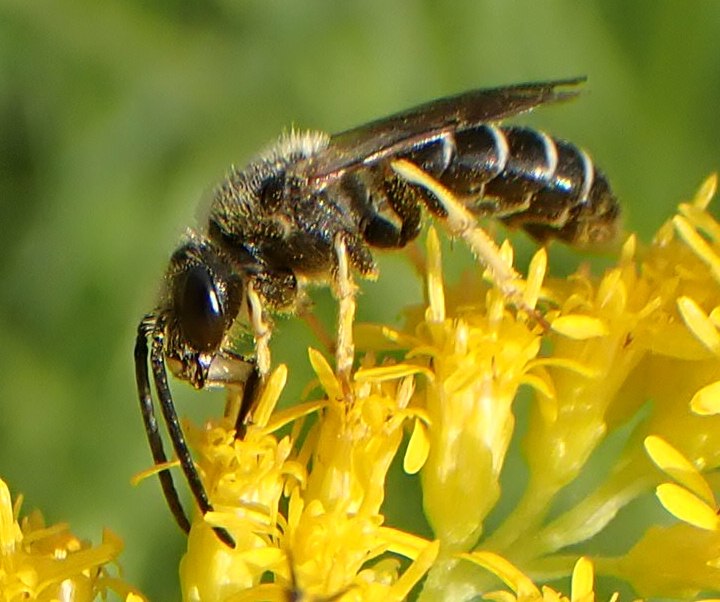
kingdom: Animalia
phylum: Arthropoda
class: Insecta
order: Hymenoptera
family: Halictidae
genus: Halictus
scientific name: Halictus rubicundus
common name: Orange-legged furrow bee
